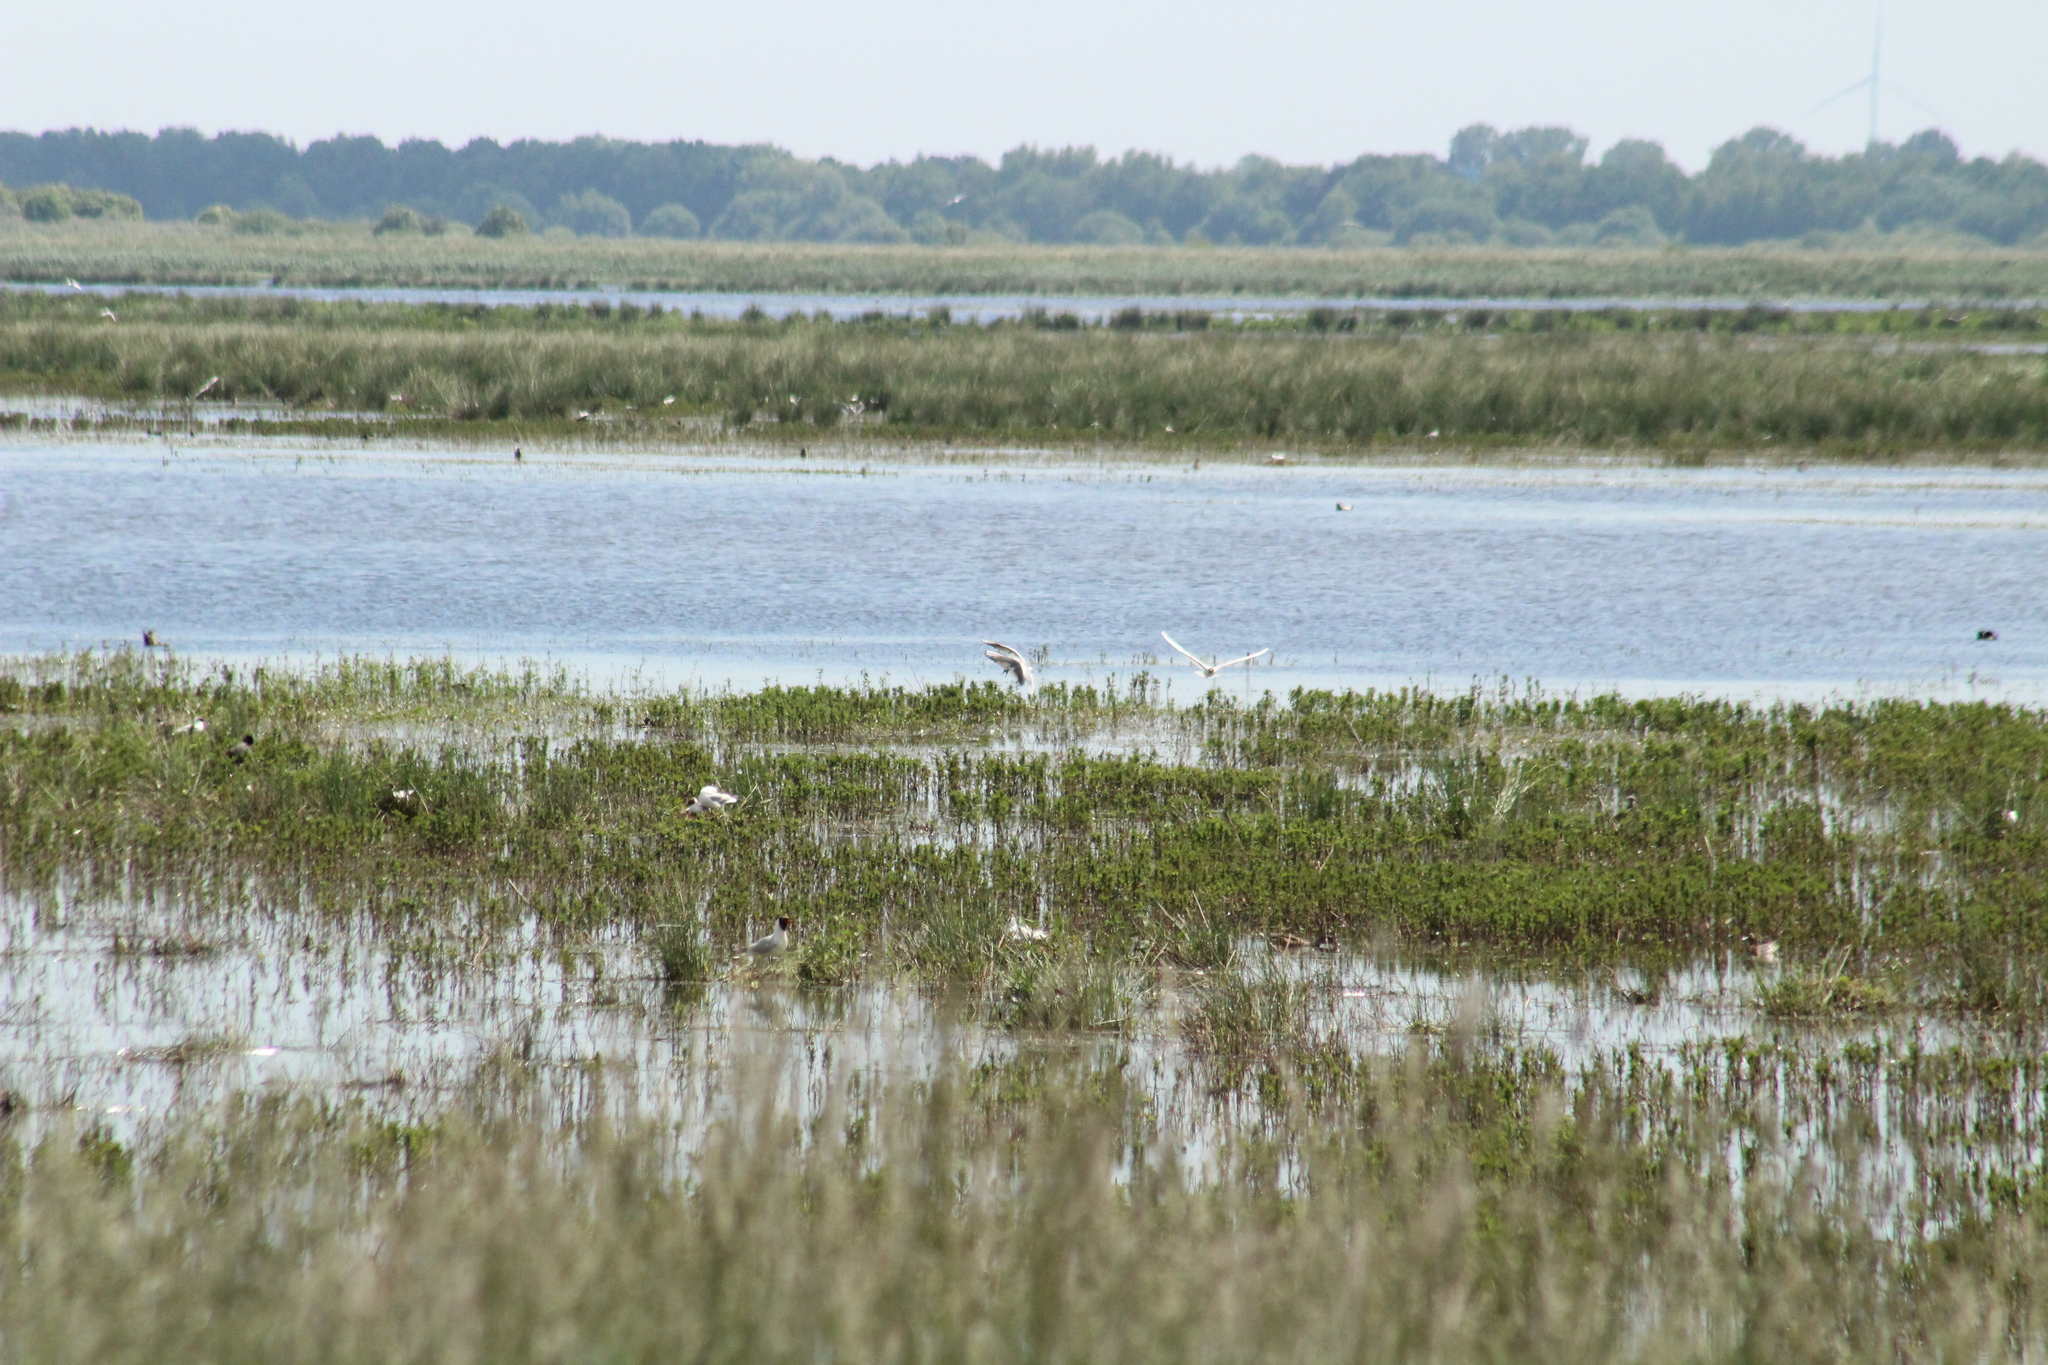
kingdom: Animalia
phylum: Chordata
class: Aves
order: Charadriiformes
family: Laridae
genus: Chroicocephalus
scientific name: Chroicocephalus ridibundus
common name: Black-headed gull
